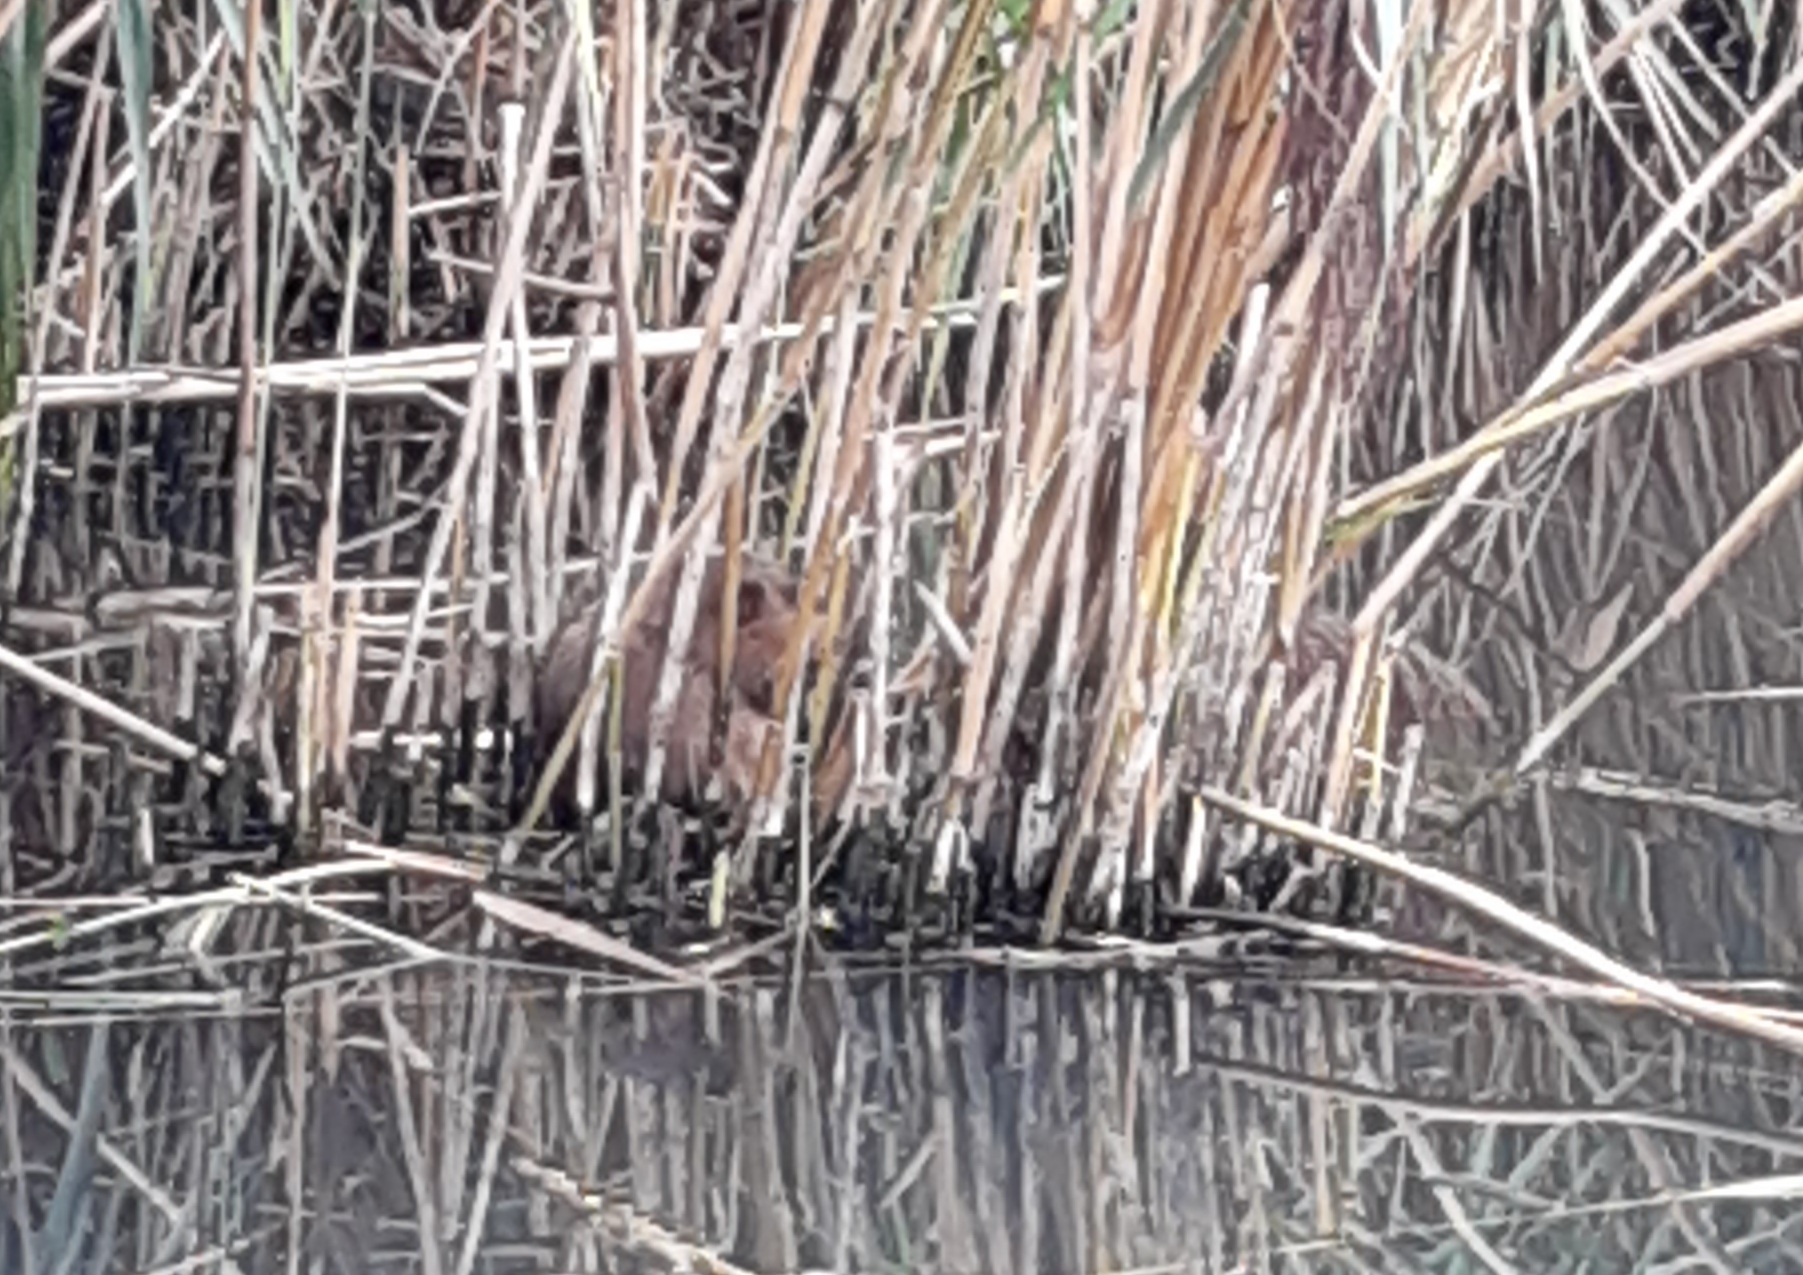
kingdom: Animalia
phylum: Chordata
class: Mammalia
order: Rodentia
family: Cricetidae
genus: Ondatra
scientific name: Ondatra zibethicus
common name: Muskrat
